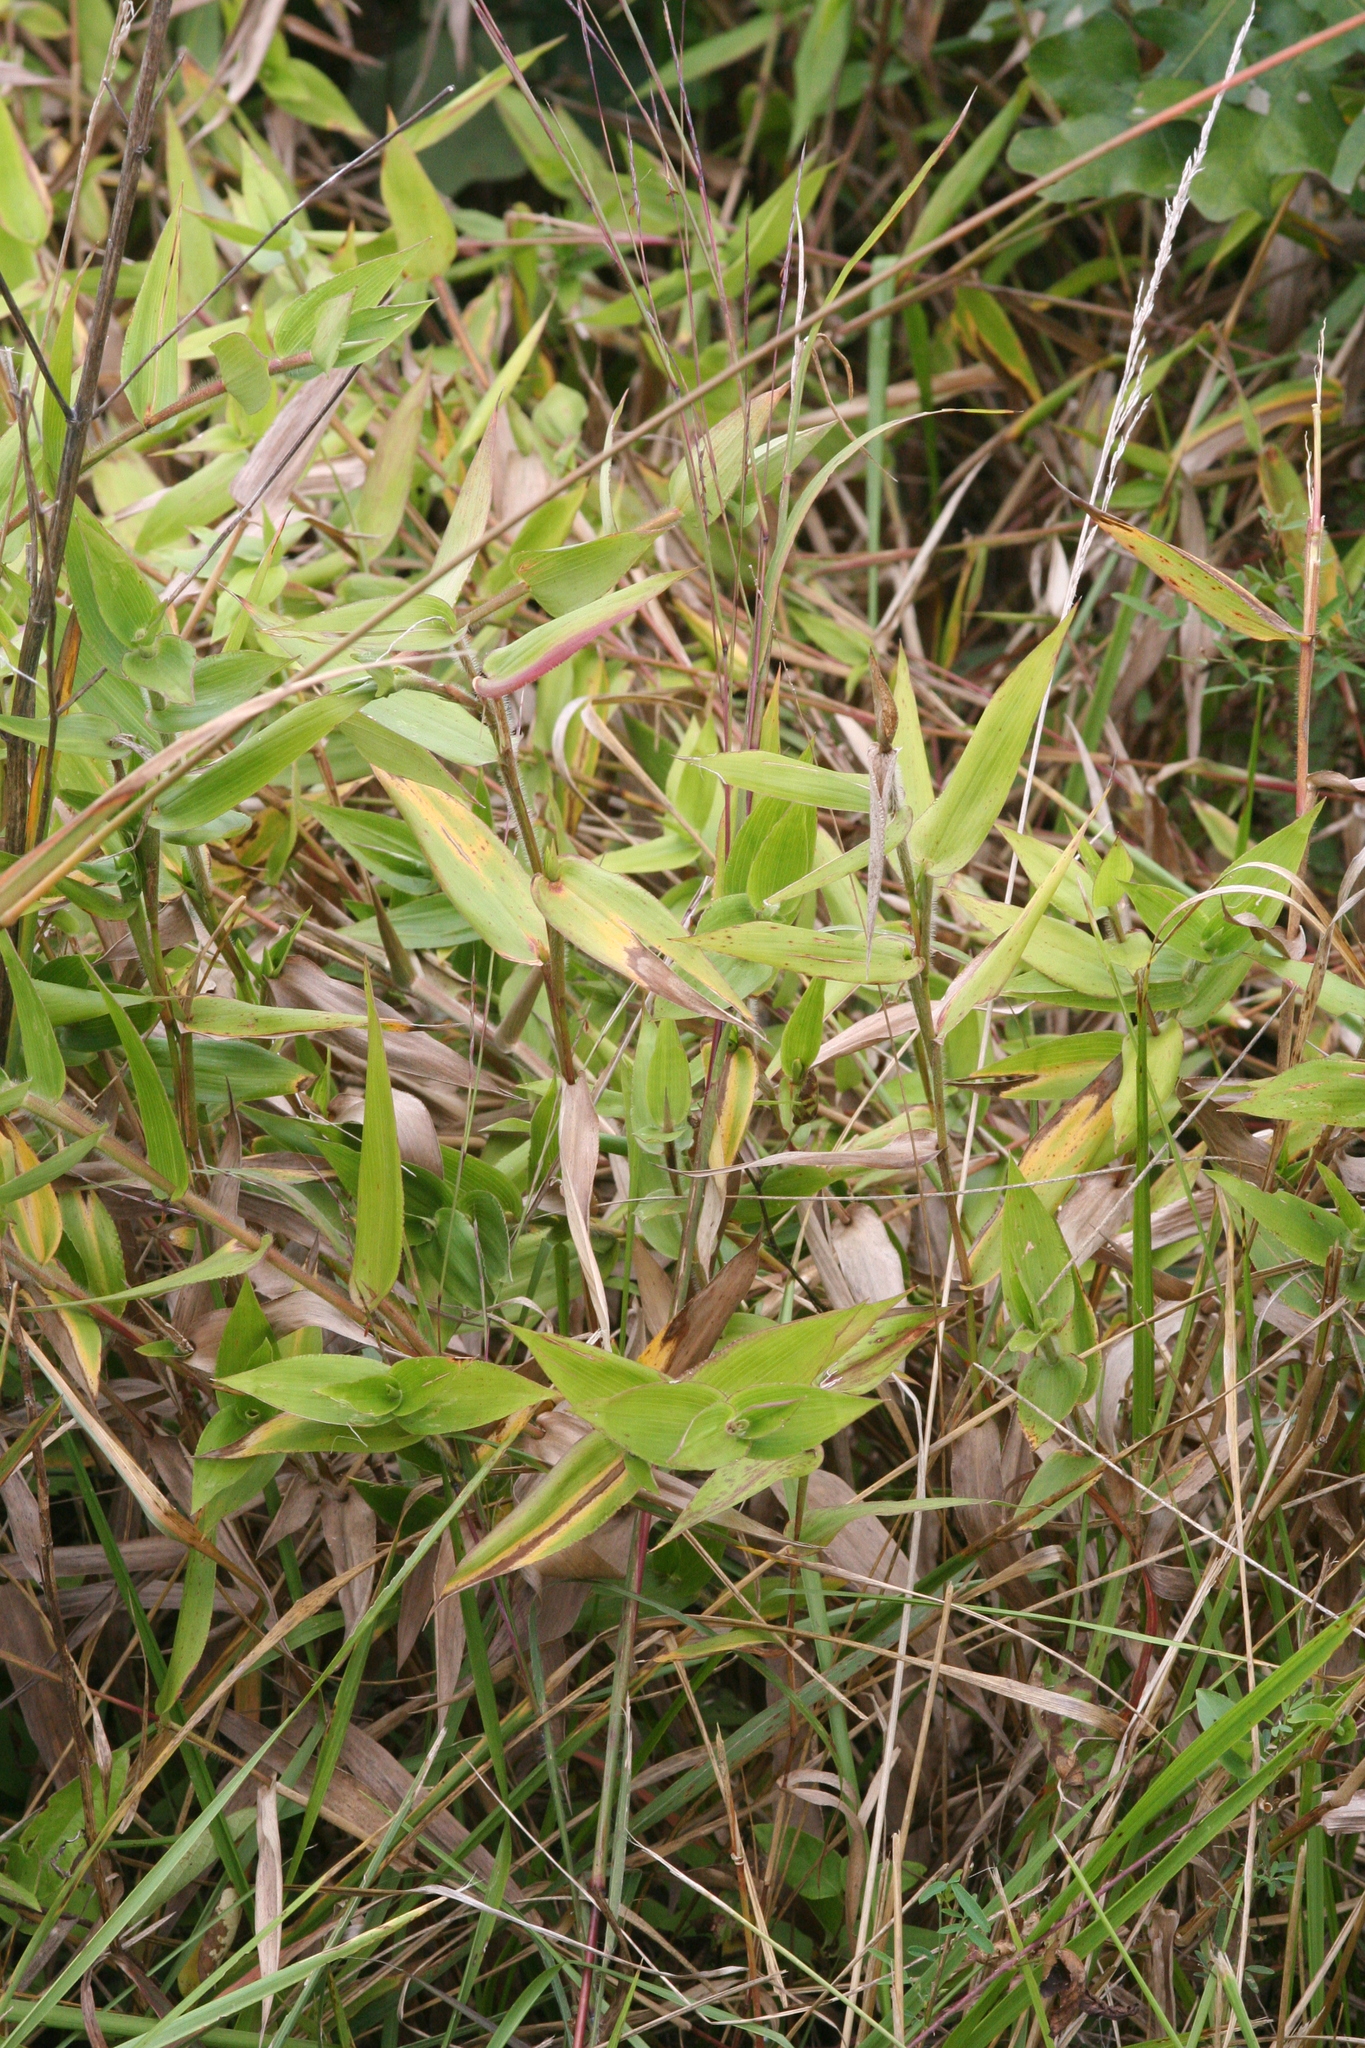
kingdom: Plantae
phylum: Tracheophyta
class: Liliopsida
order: Poales
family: Poaceae
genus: Dichanthelium
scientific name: Dichanthelium clandestinum
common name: Deer-tongue grass
